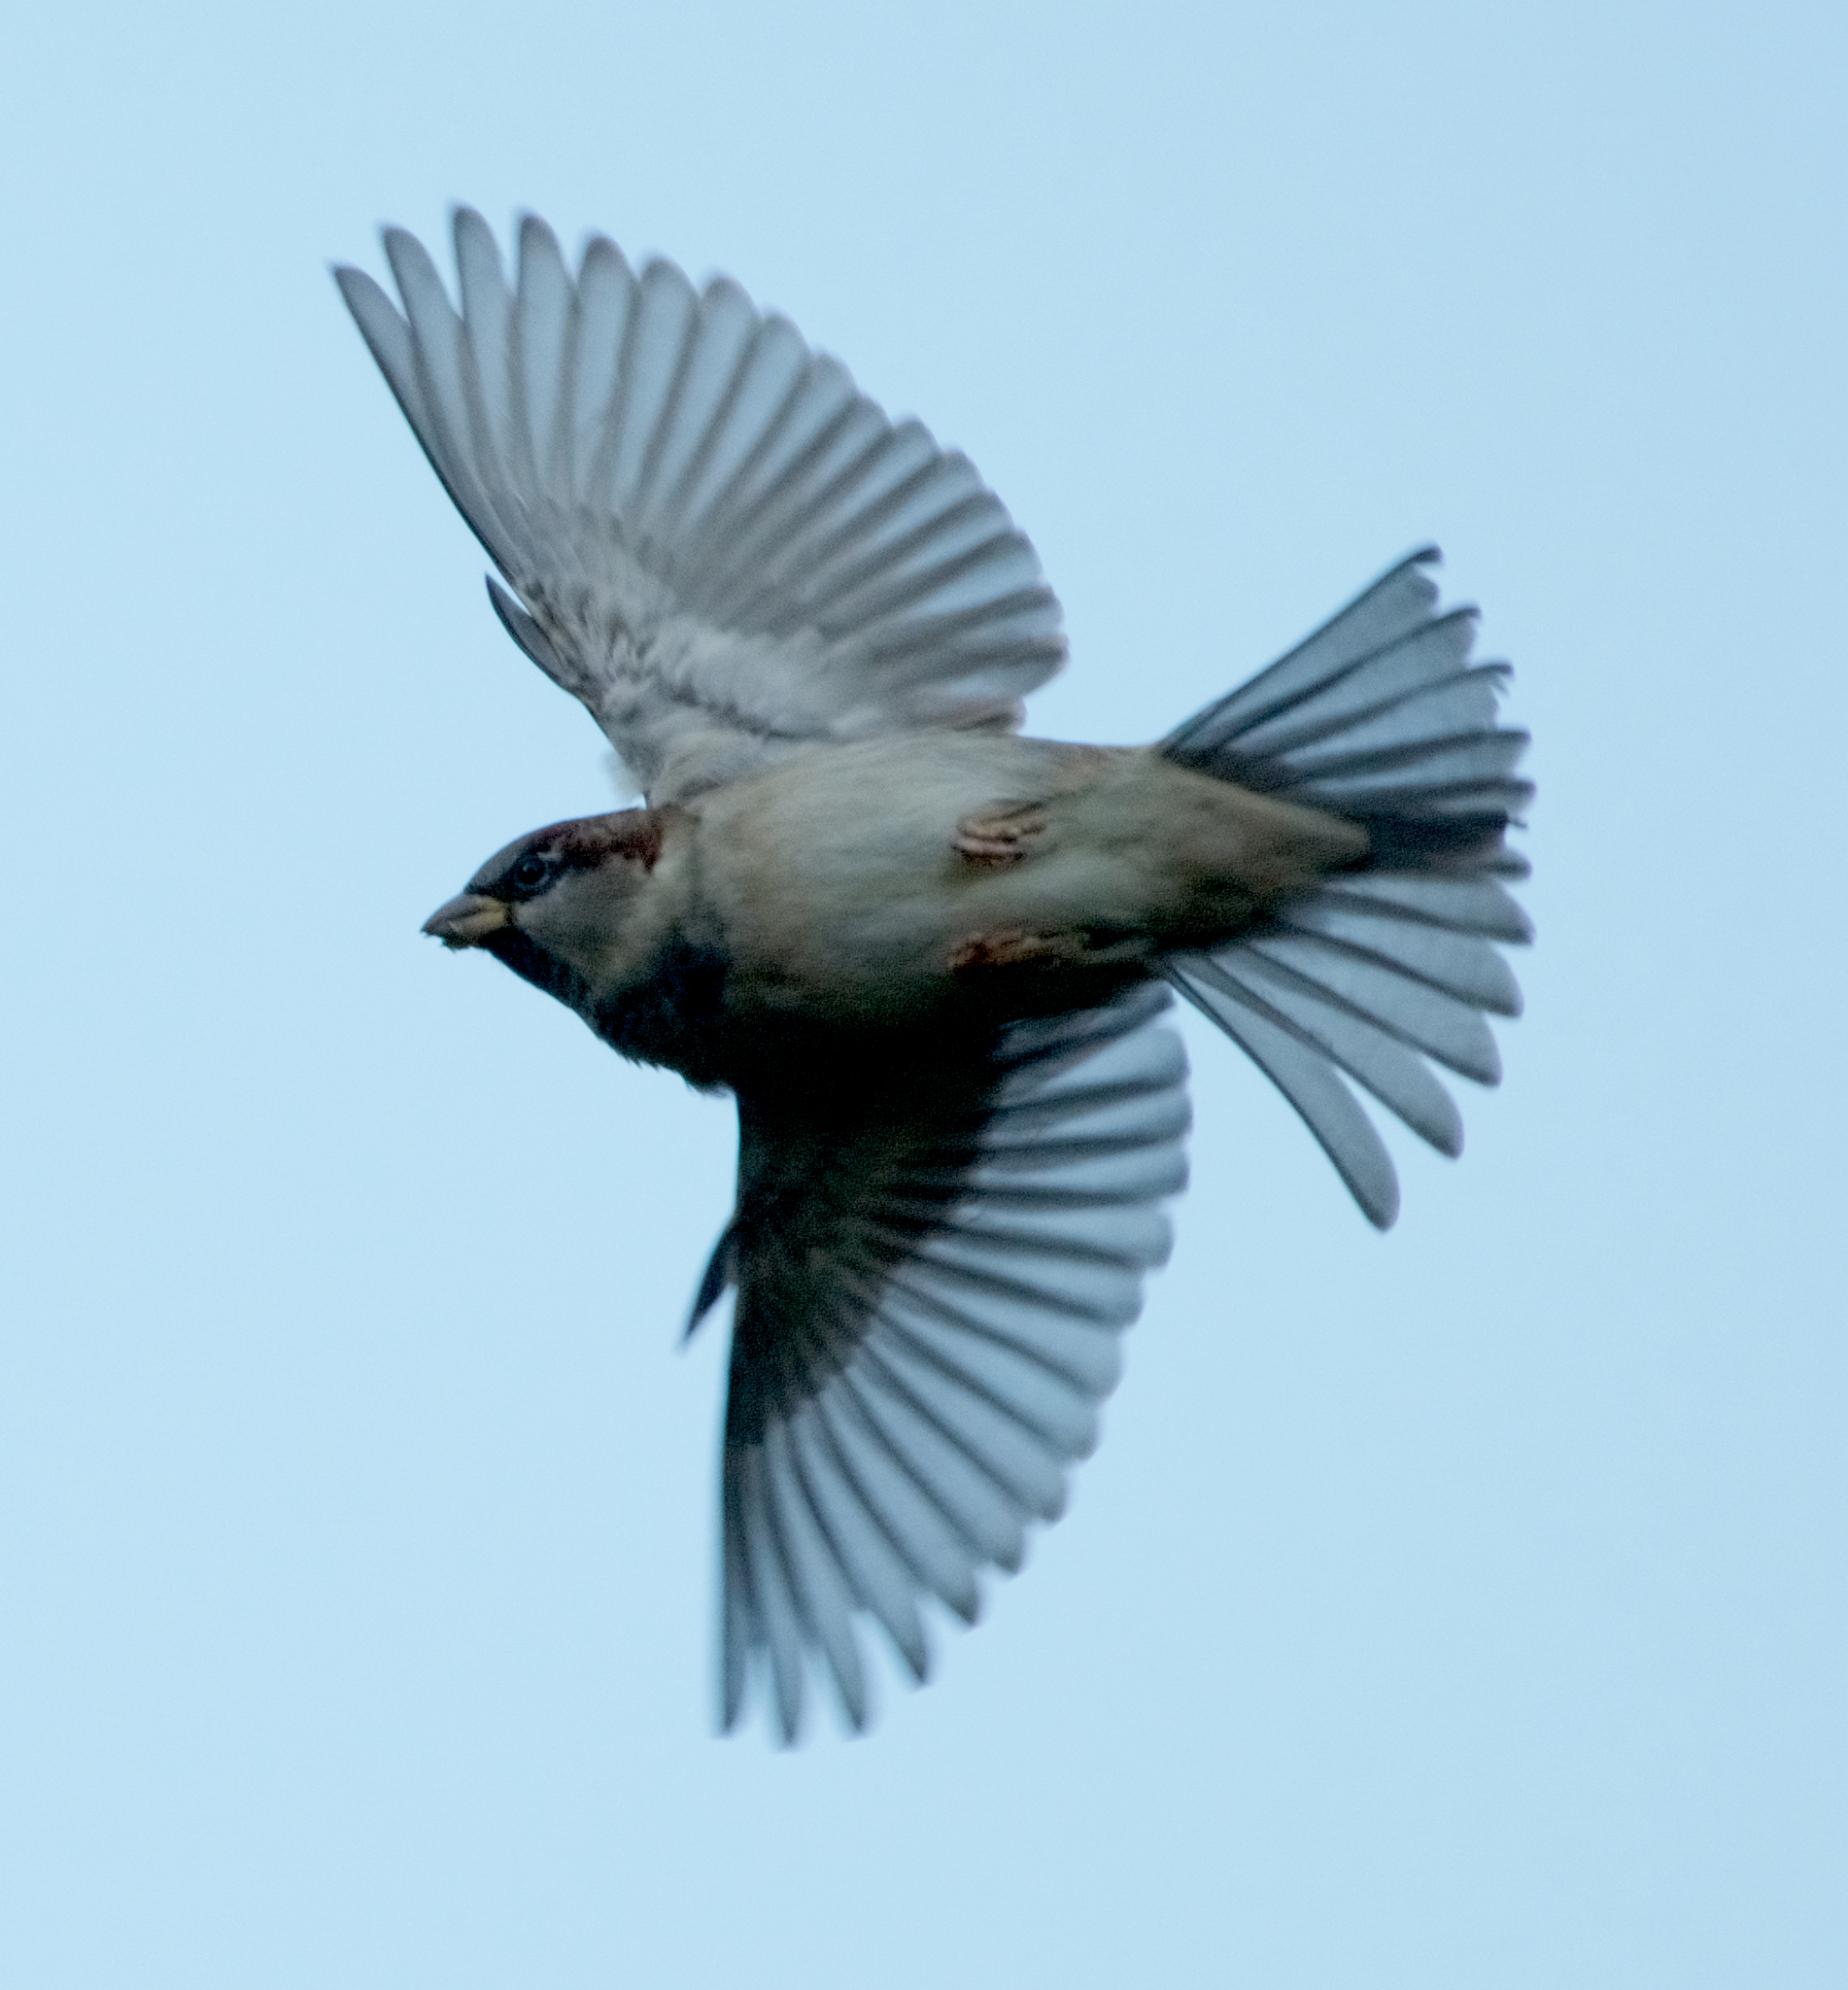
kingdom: Animalia
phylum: Chordata
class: Aves
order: Passeriformes
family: Passeridae
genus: Passer
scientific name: Passer domesticus
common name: House sparrow
